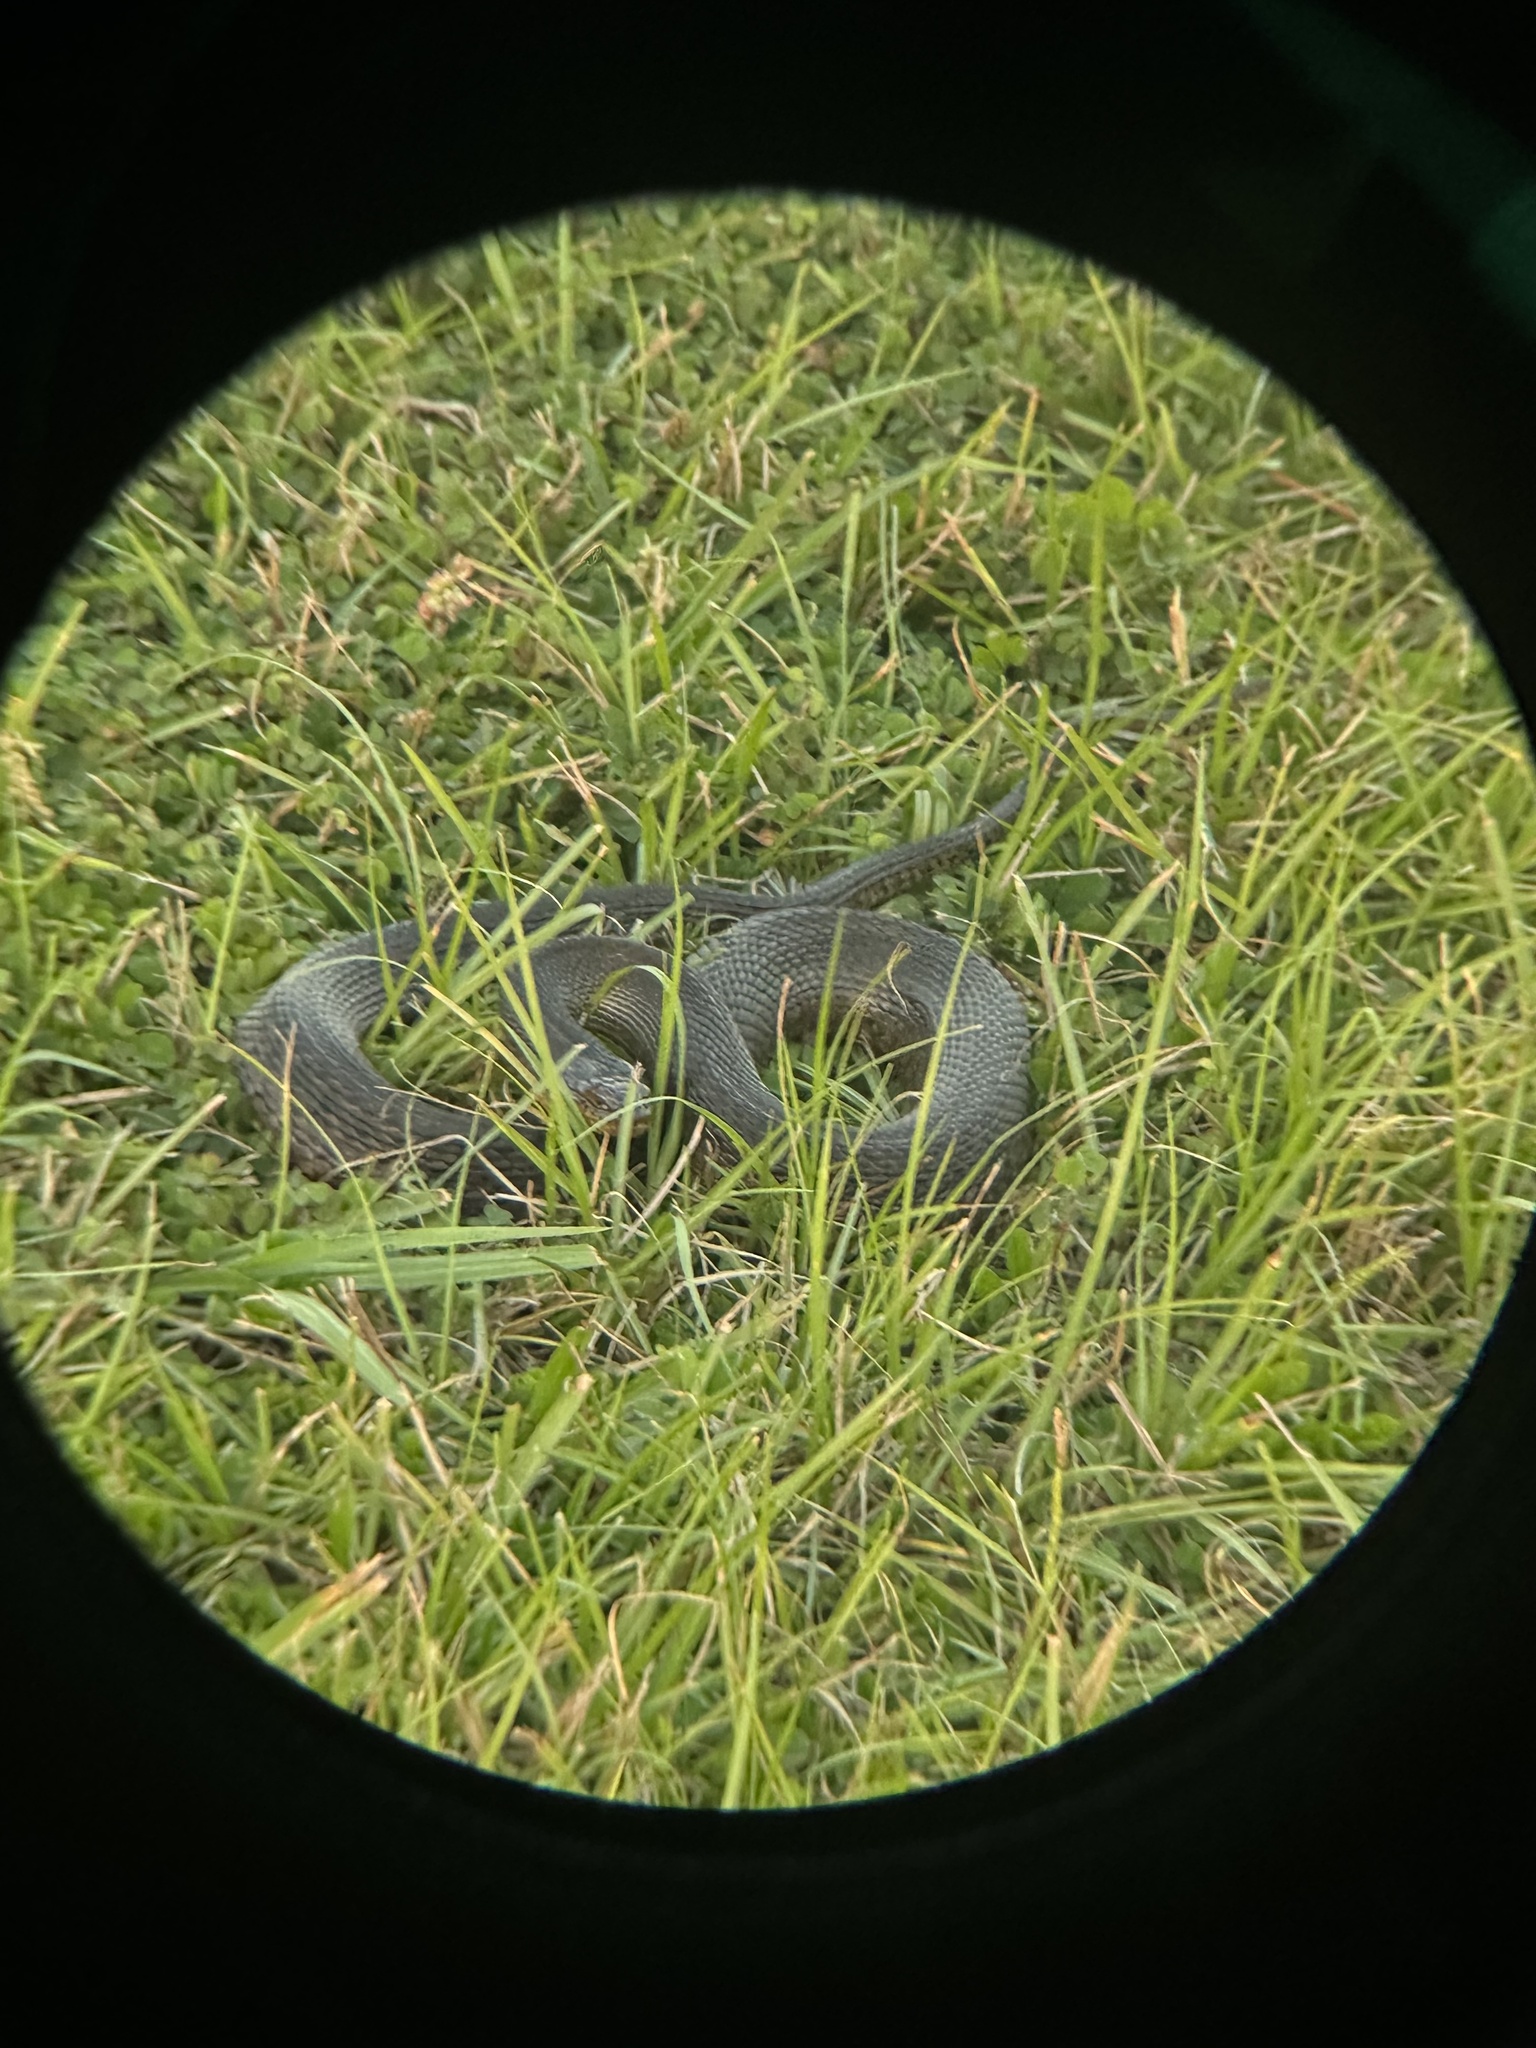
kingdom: Animalia
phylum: Chordata
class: Squamata
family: Colubridae
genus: Nerodia
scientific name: Nerodia floridana
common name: Florida green watersnake
